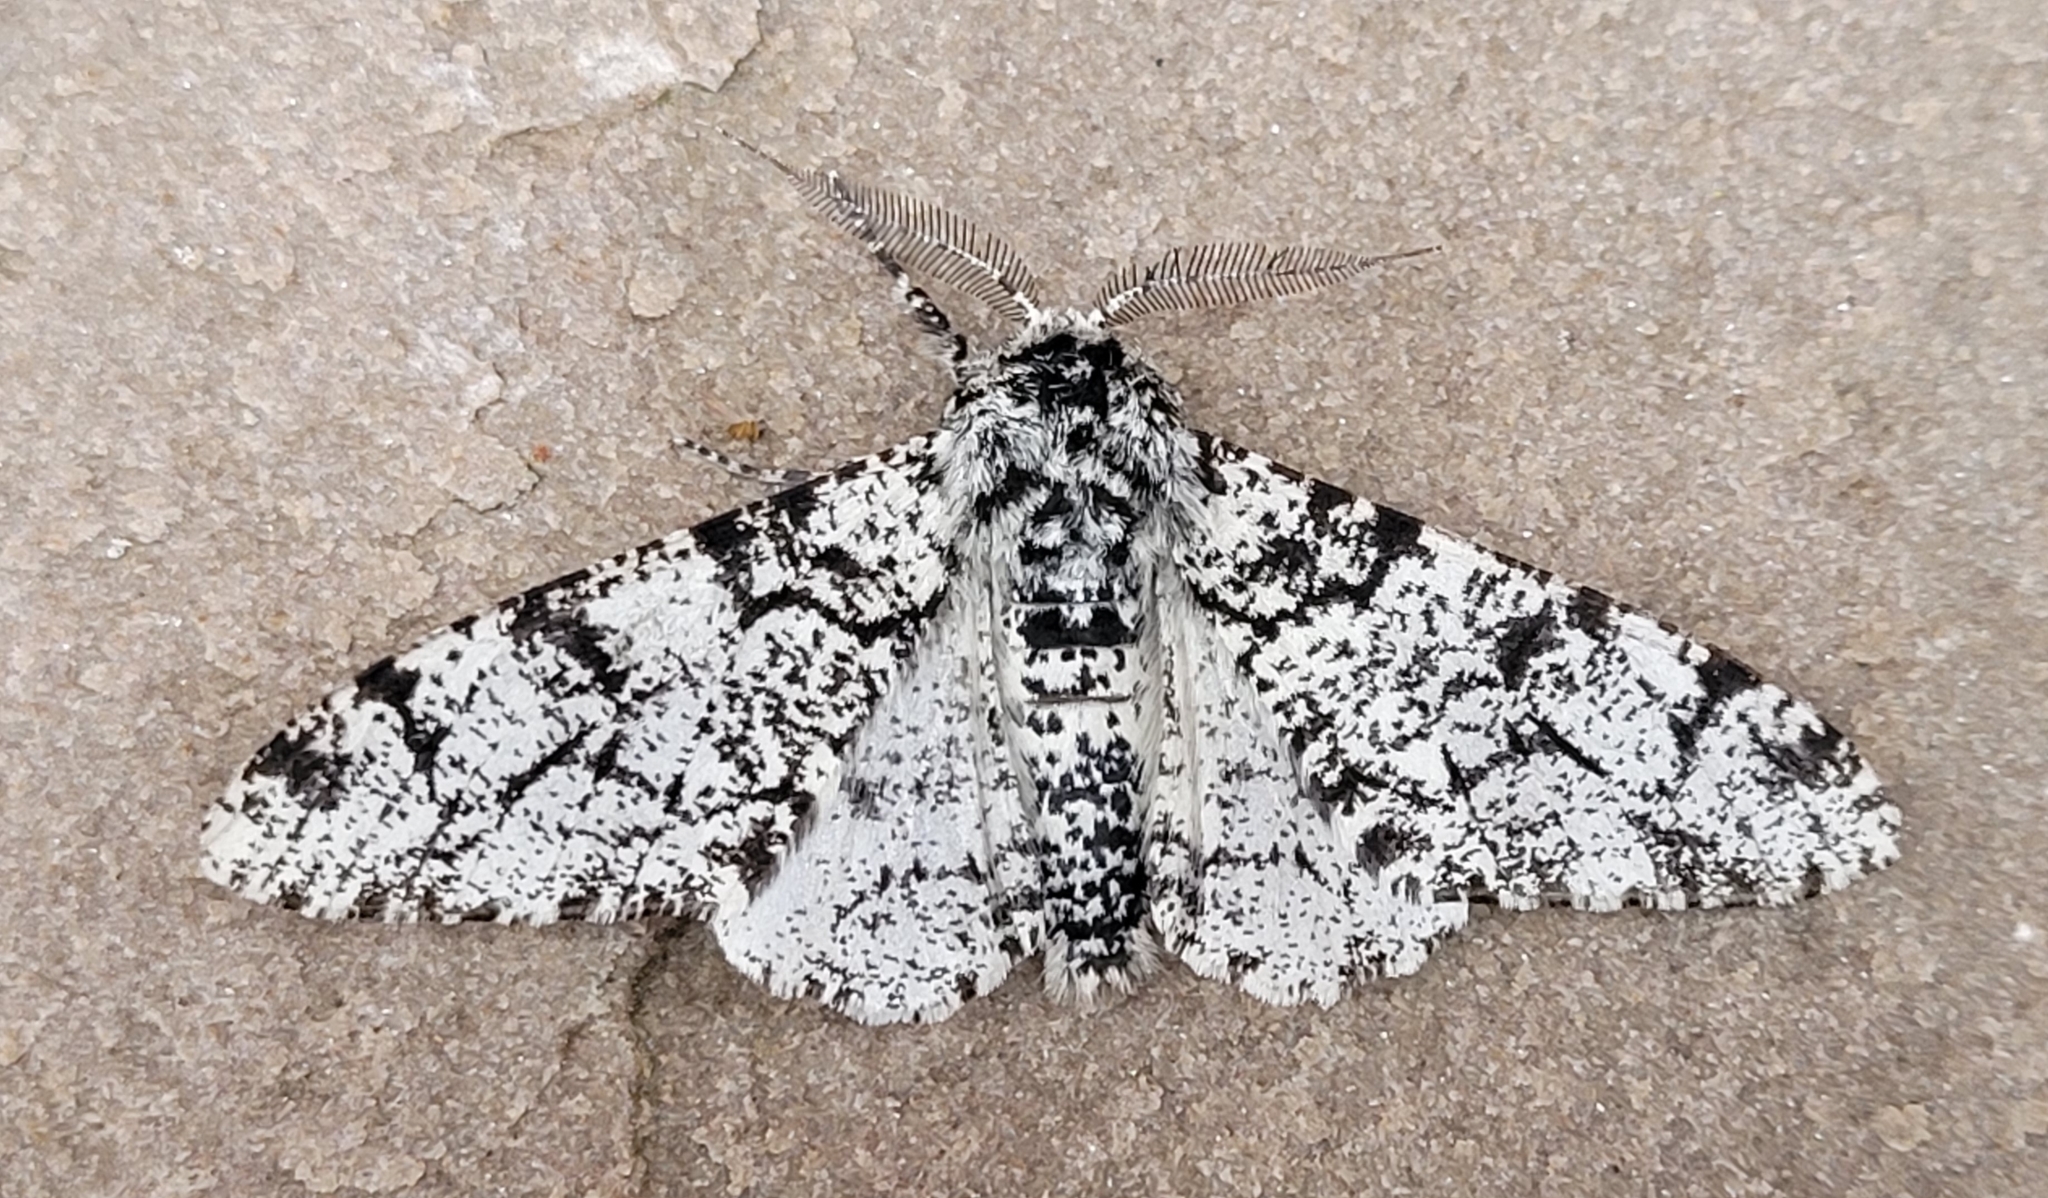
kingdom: Animalia
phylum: Arthropoda
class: Insecta
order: Lepidoptera
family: Geometridae
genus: Biston
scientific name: Biston betularia
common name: Peppered moth
